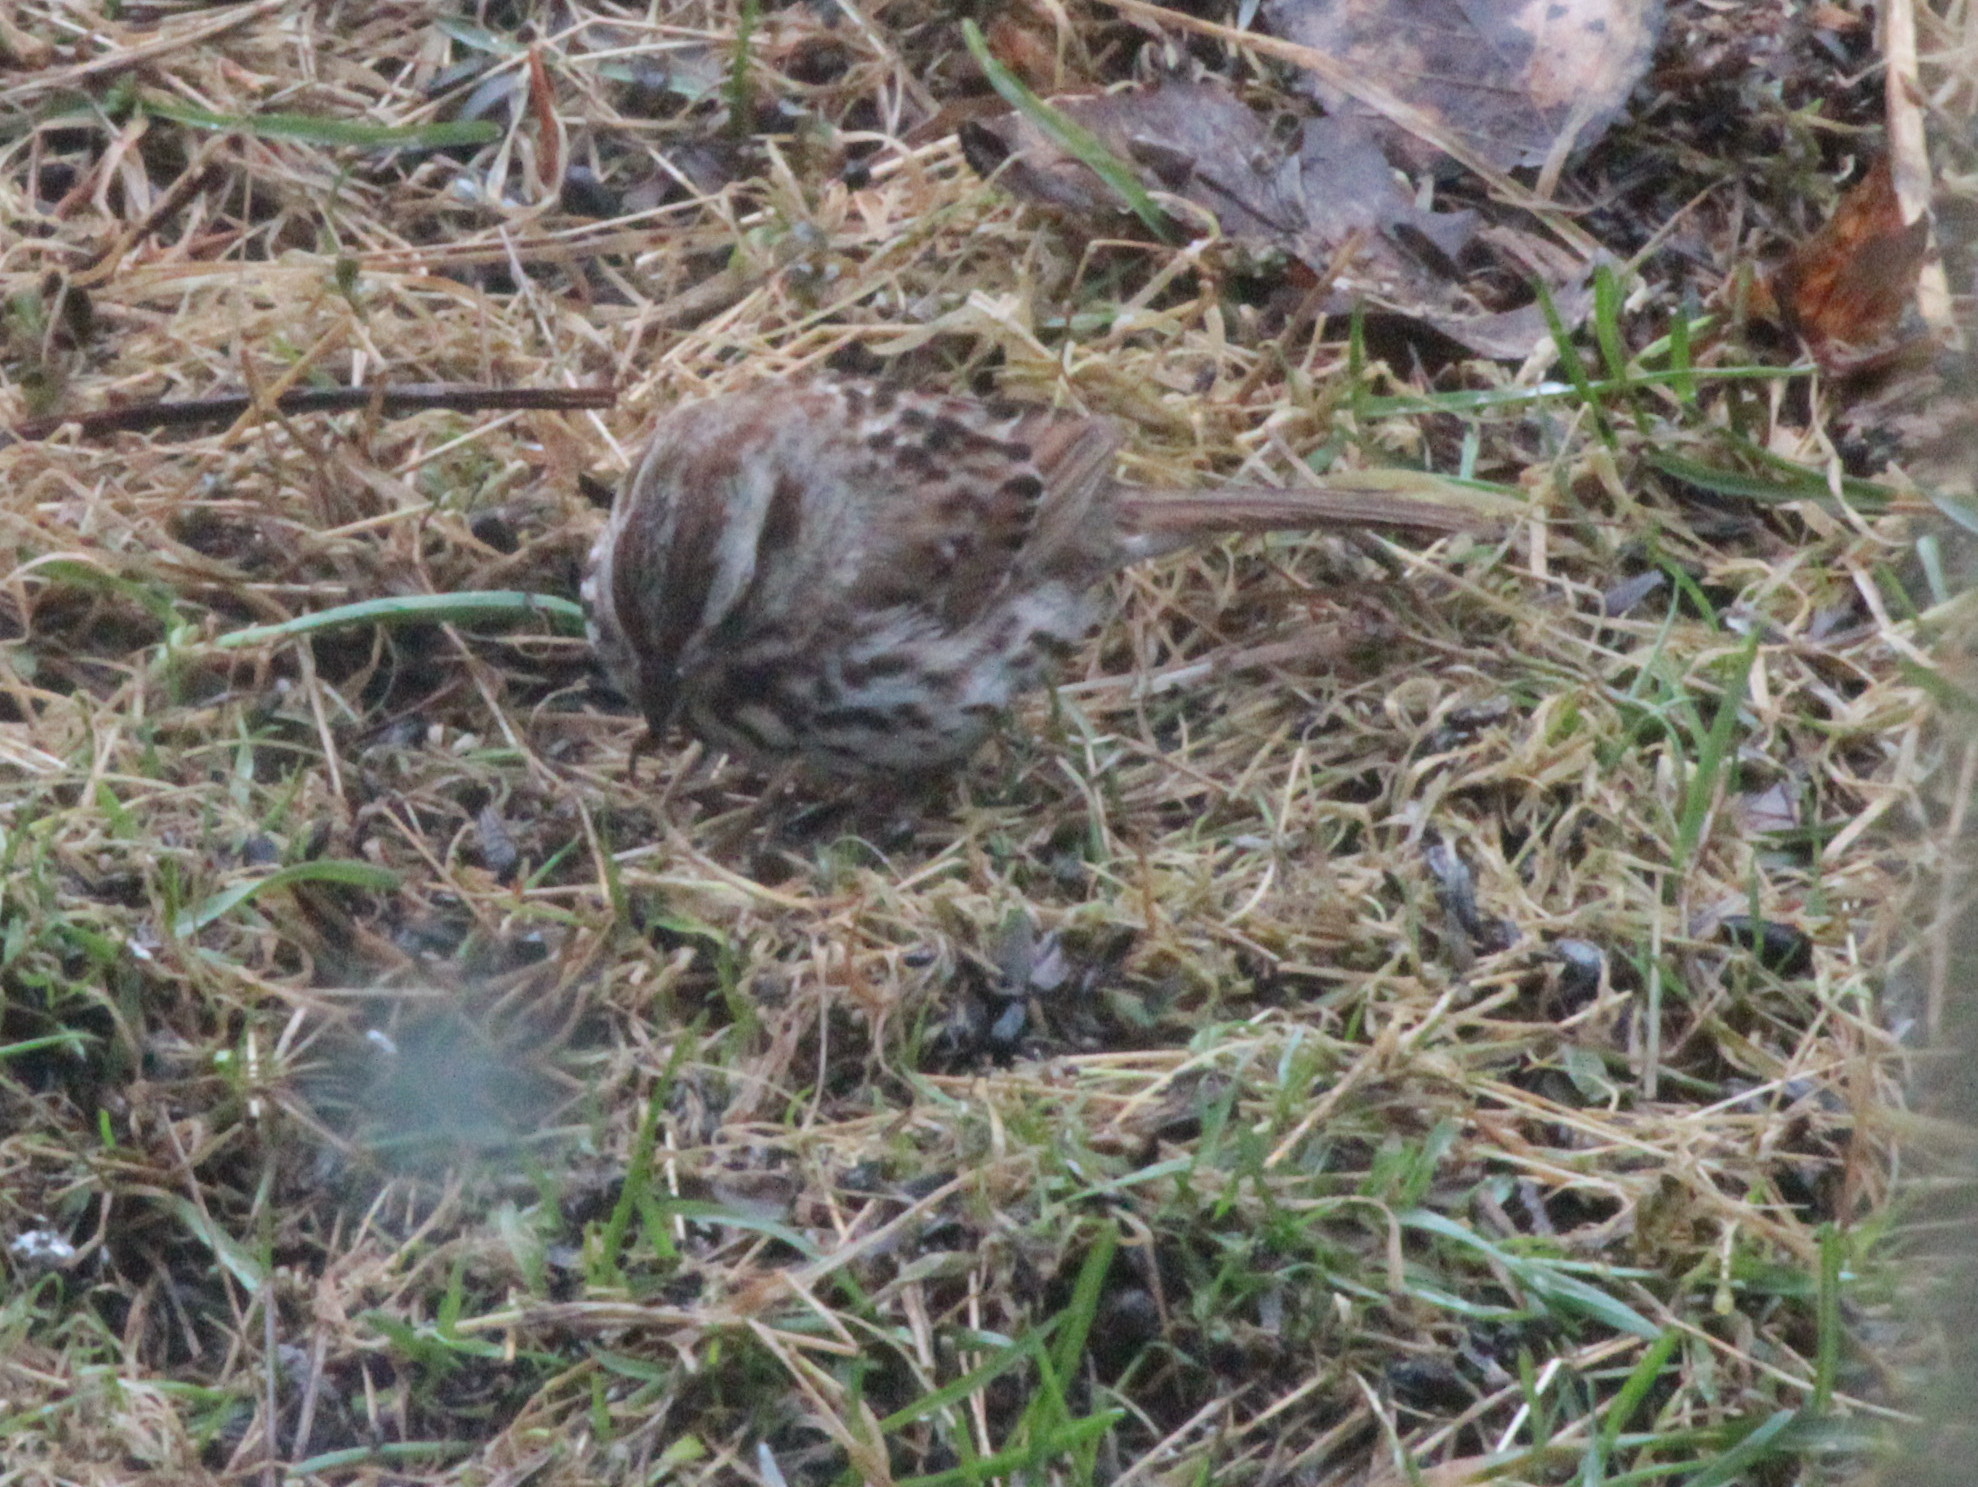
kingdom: Animalia
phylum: Chordata
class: Aves
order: Passeriformes
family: Passerellidae
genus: Melospiza
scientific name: Melospiza melodia
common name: Song sparrow
